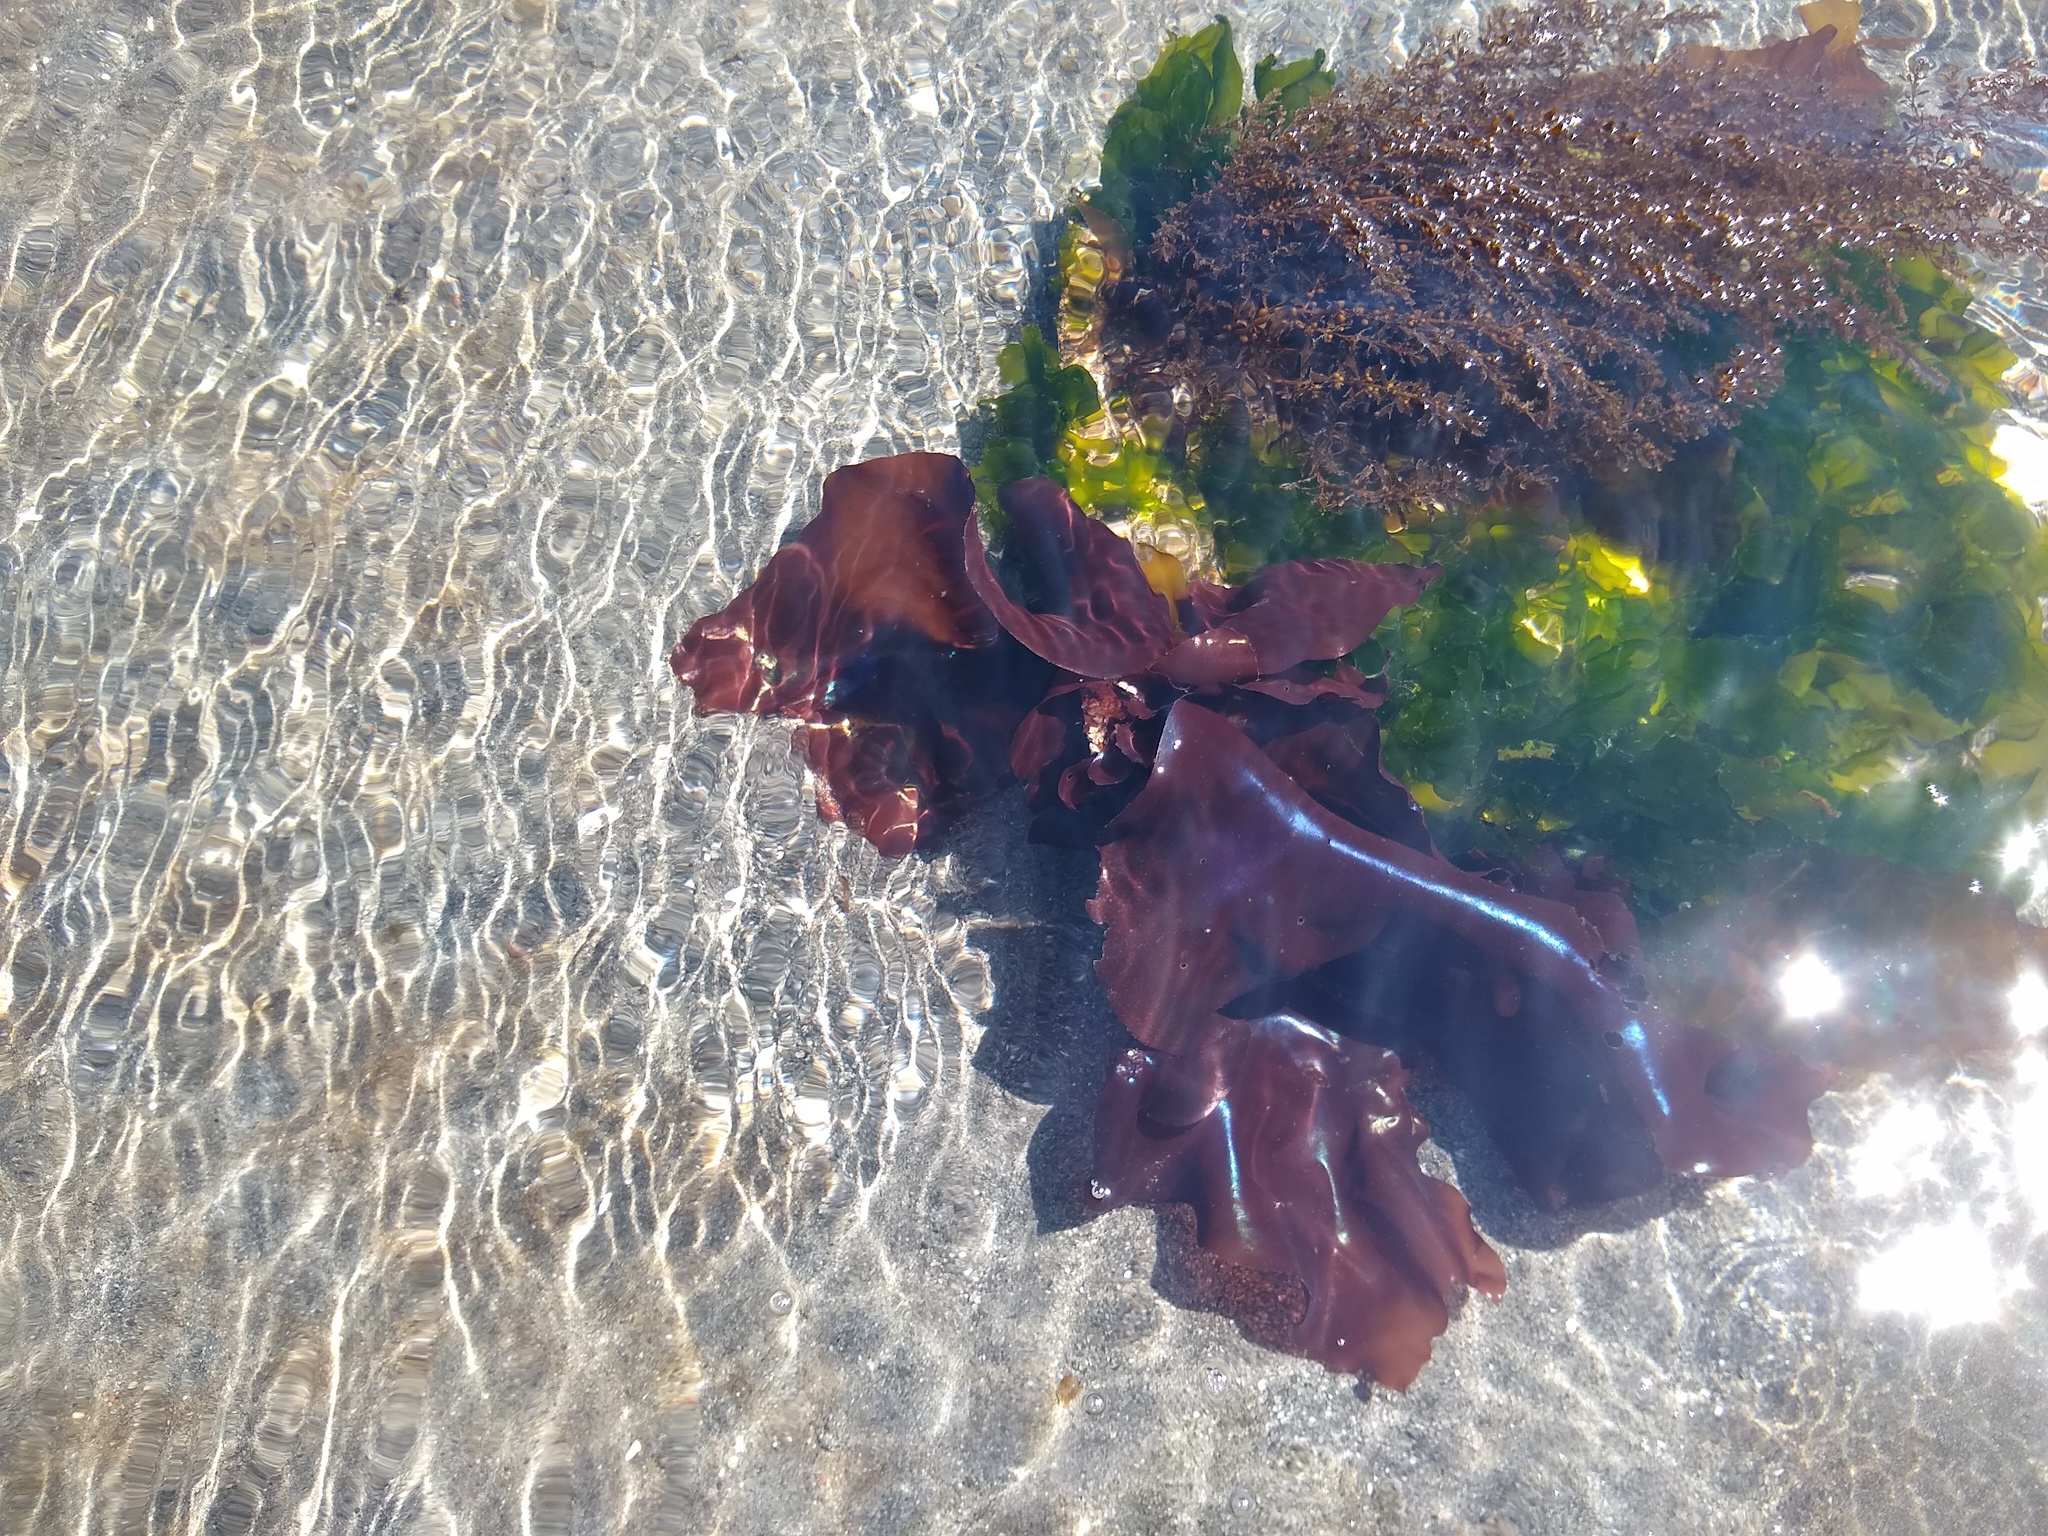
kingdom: Plantae
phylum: Rhodophyta
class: Florideophyceae
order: Gigartinales
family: Gigartinaceae
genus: Mazzaella
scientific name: Mazzaella splendens
